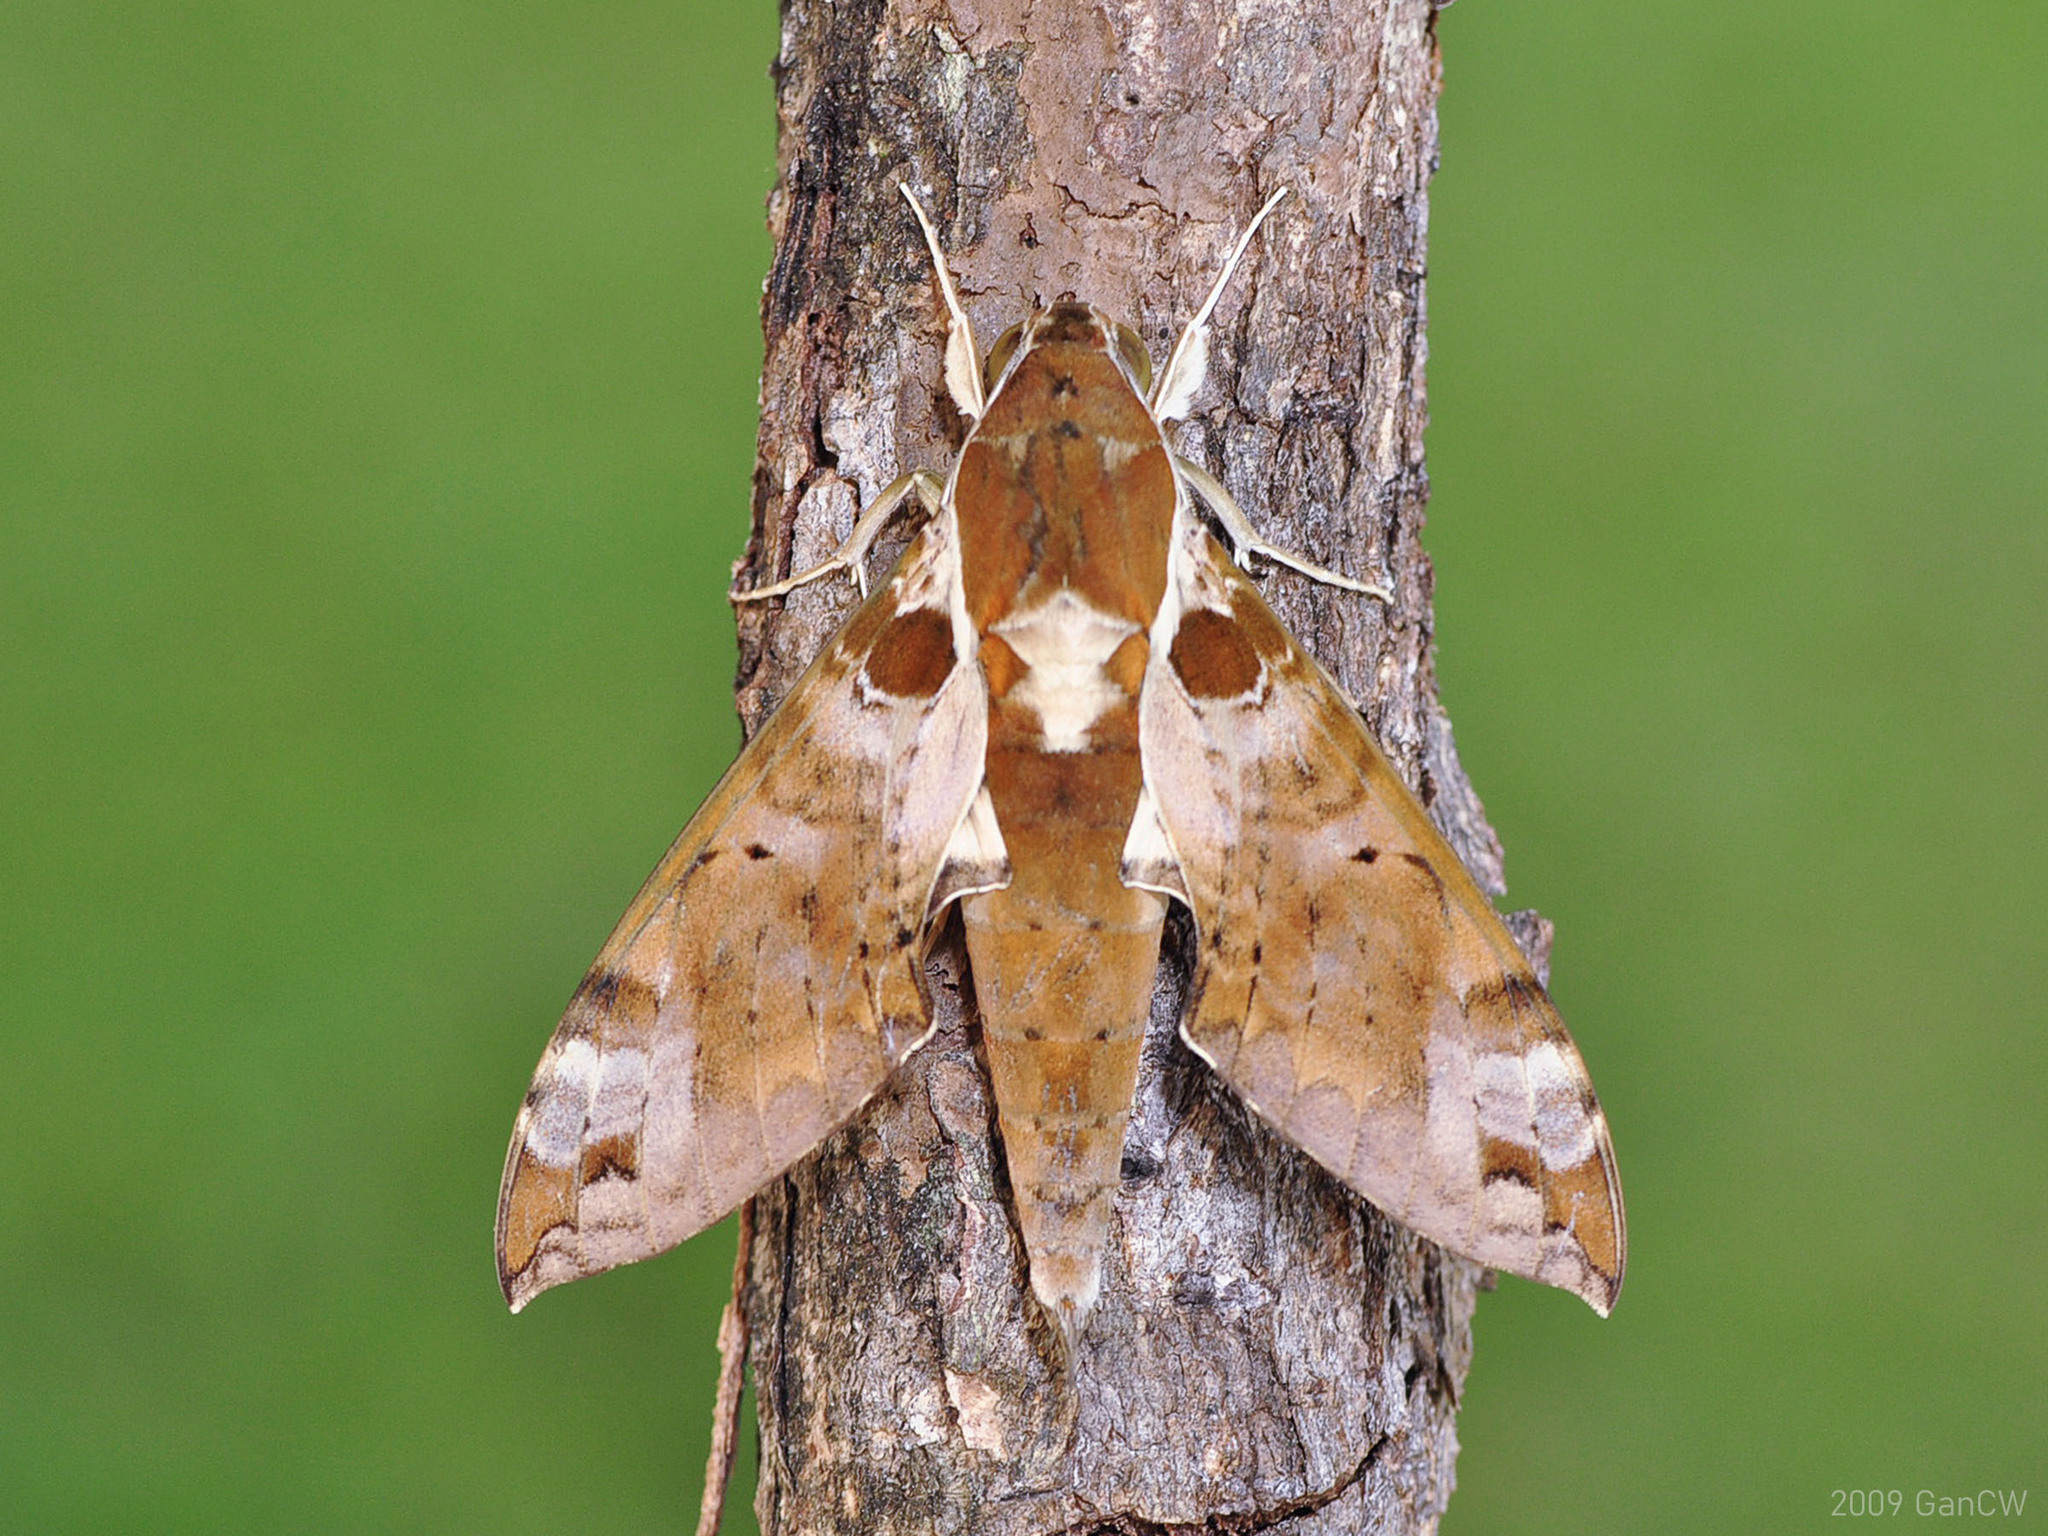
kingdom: Animalia
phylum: Arthropoda
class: Insecta
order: Lepidoptera
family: Sphingidae
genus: Cechenena
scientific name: Cechenena helops
